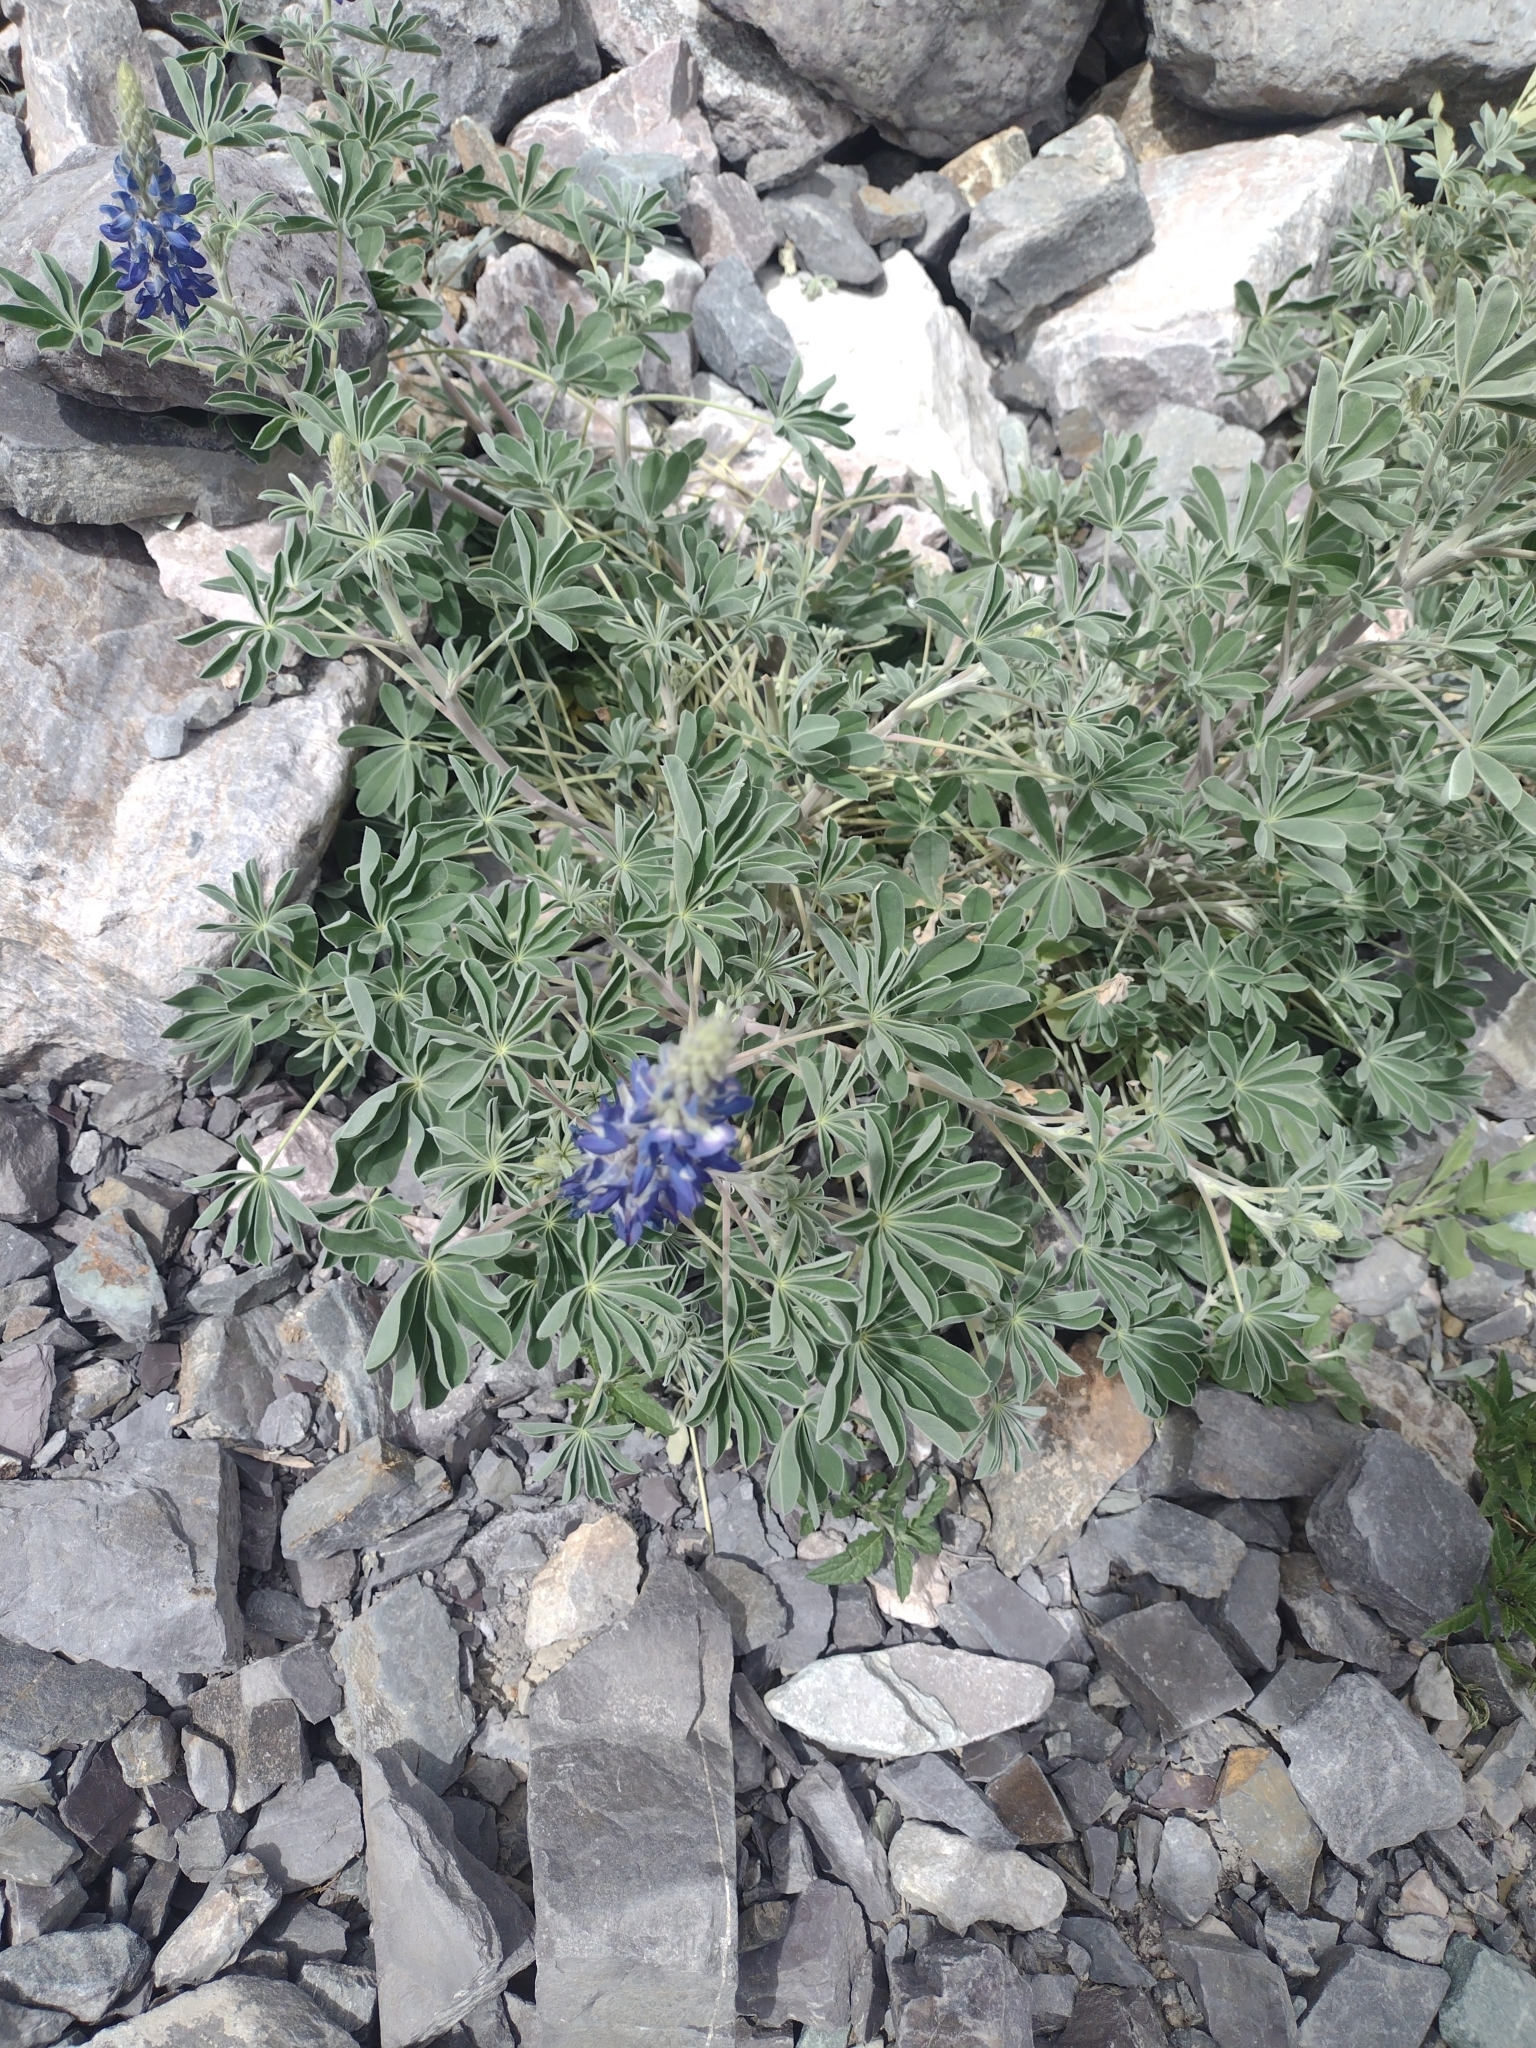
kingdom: Plantae
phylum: Tracheophyta
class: Magnoliopsida
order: Fabales
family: Fabaceae
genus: Lupinus
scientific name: Lupinus umidicola
